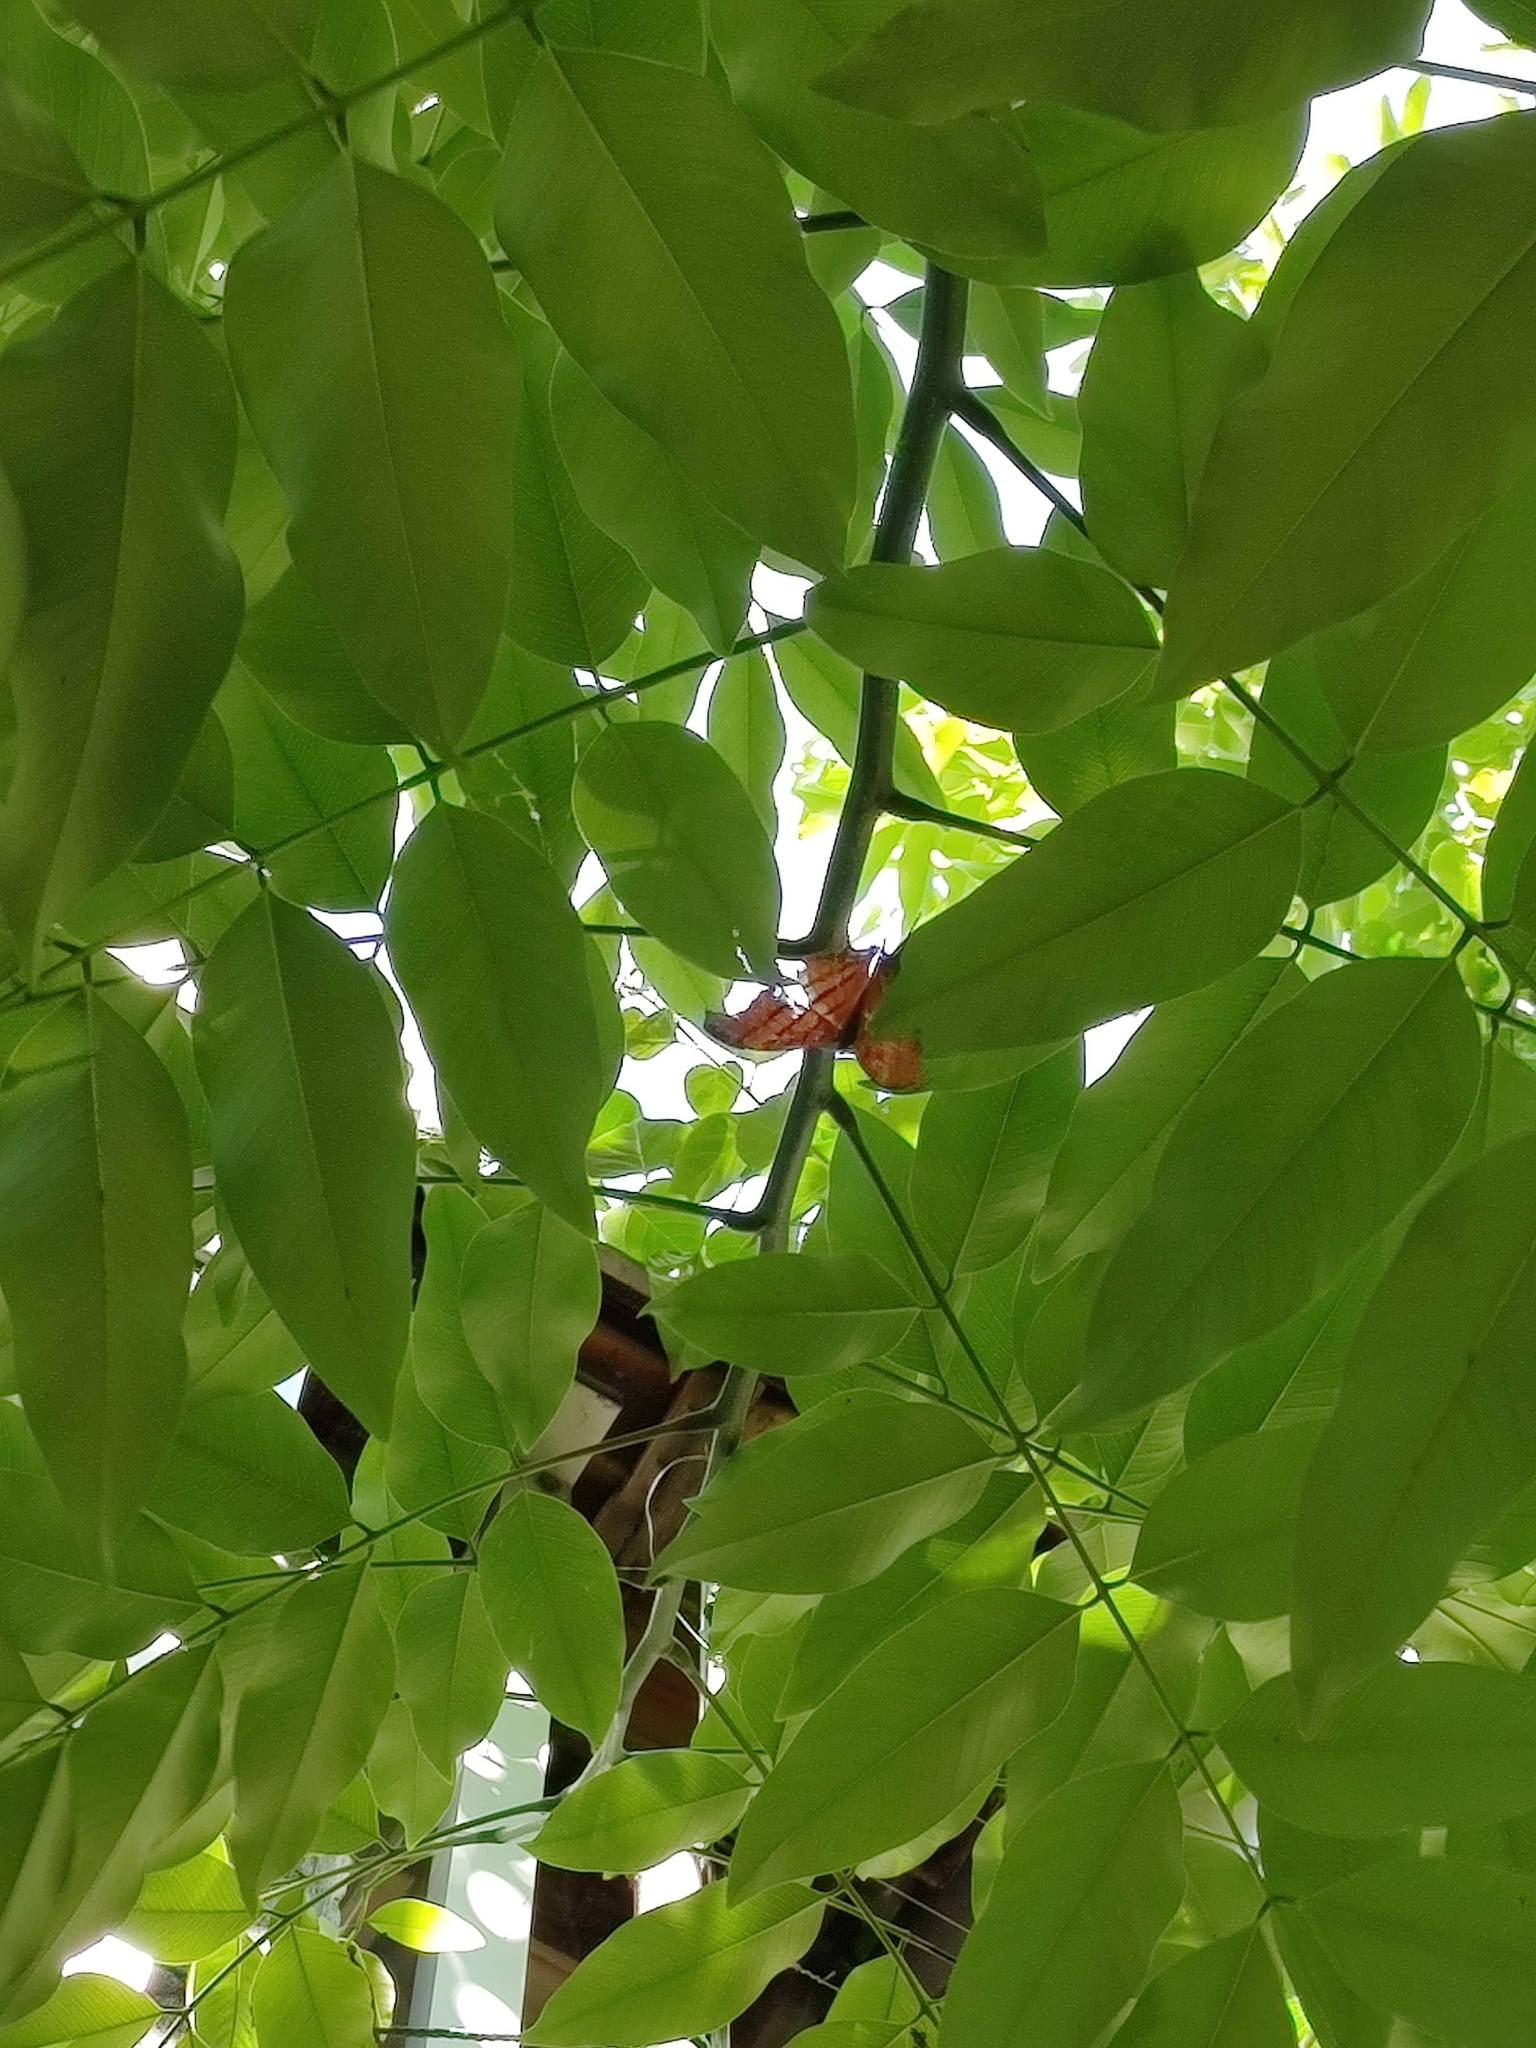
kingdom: Animalia
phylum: Arthropoda
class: Insecta
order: Lepidoptera
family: Nymphalidae
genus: Marpesia
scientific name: Marpesia petreus
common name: Red dagger wing
